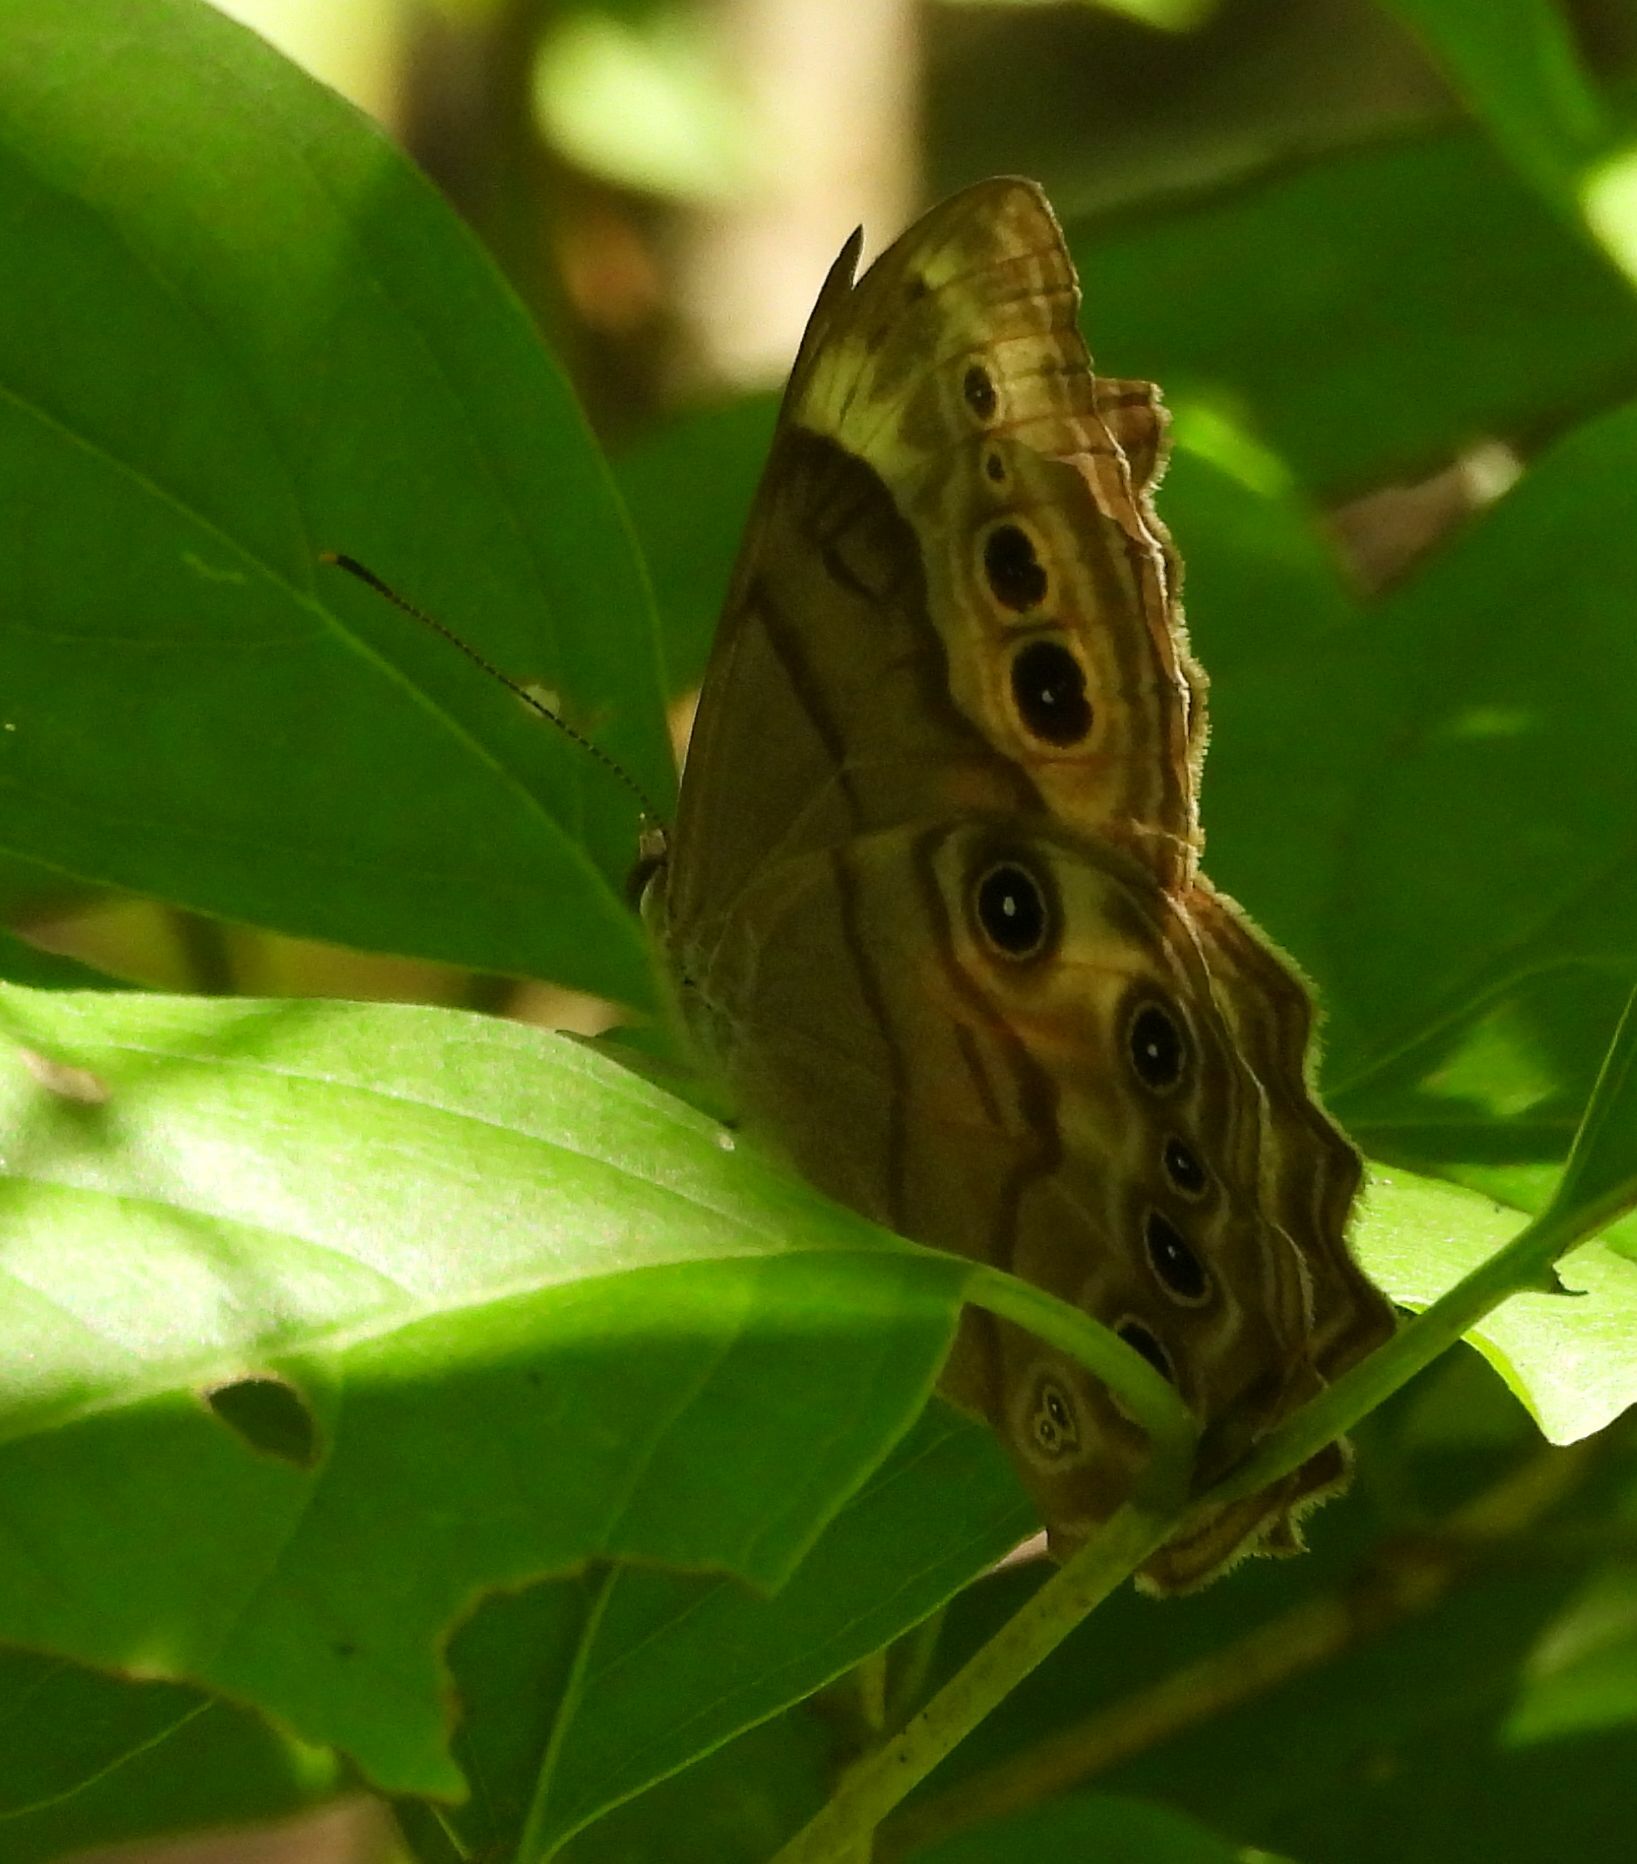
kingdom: Animalia
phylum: Arthropoda
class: Insecta
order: Lepidoptera
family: Nymphalidae
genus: Lethe
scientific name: Lethe anthedon
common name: Northern pearly-eye
